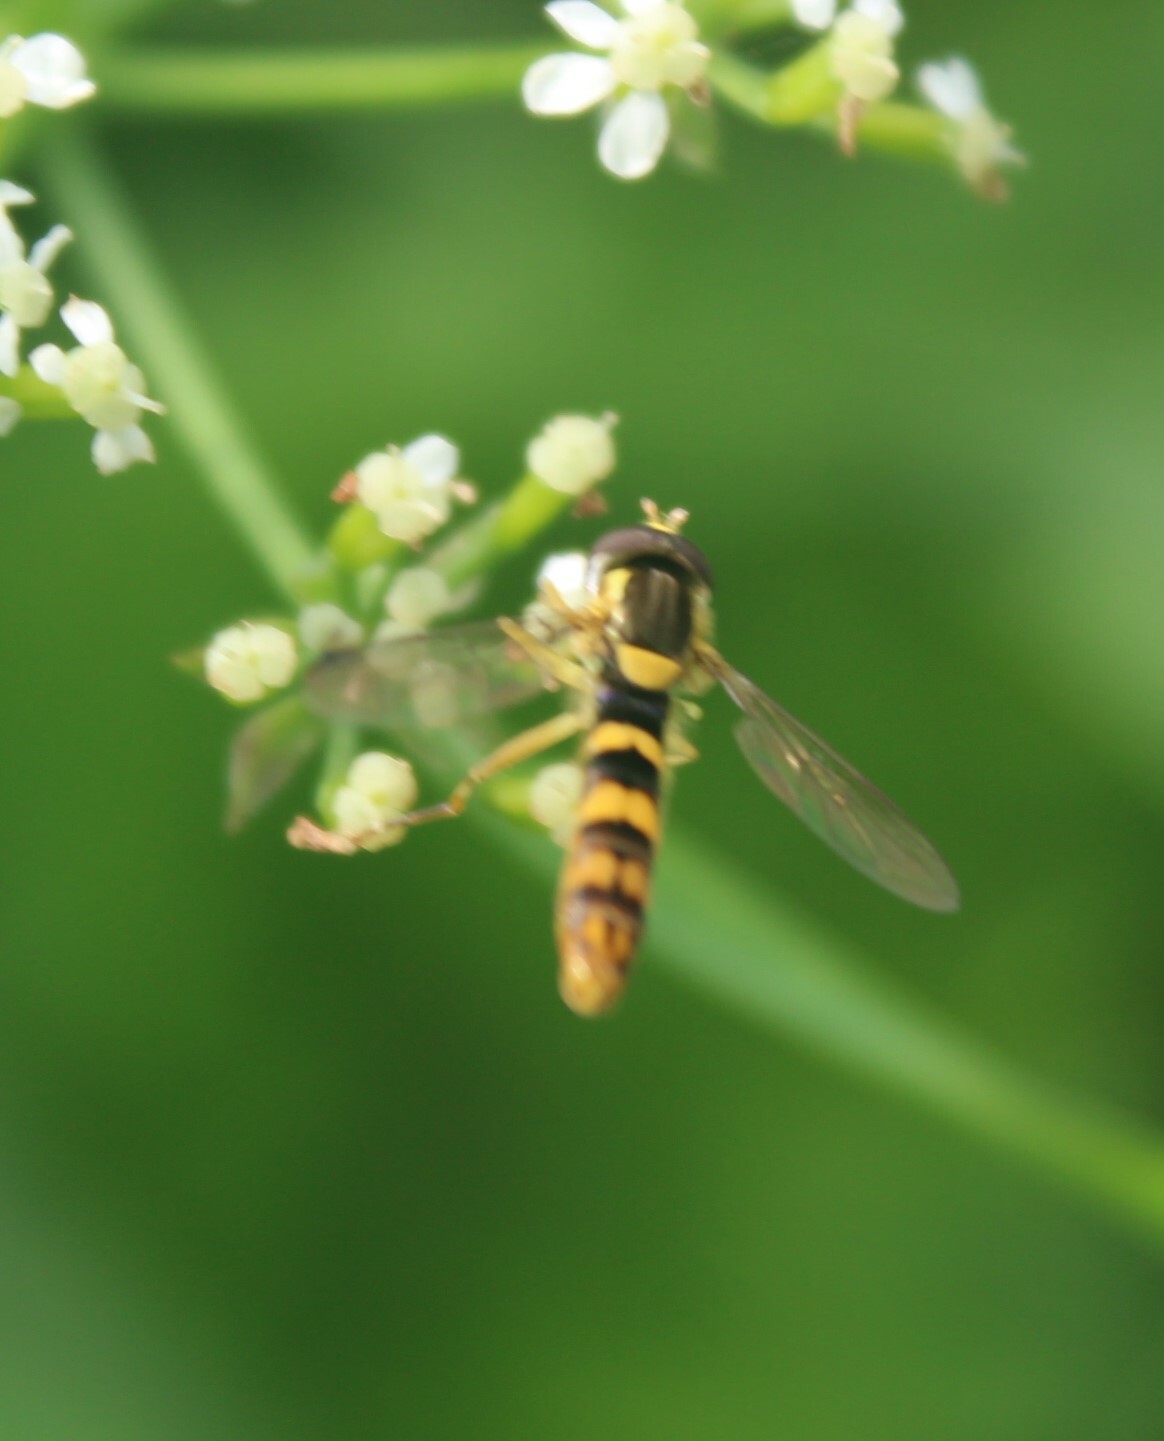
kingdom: Animalia
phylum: Arthropoda
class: Insecta
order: Diptera
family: Syrphidae
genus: Sphaerophoria
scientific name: Sphaerophoria scripta
